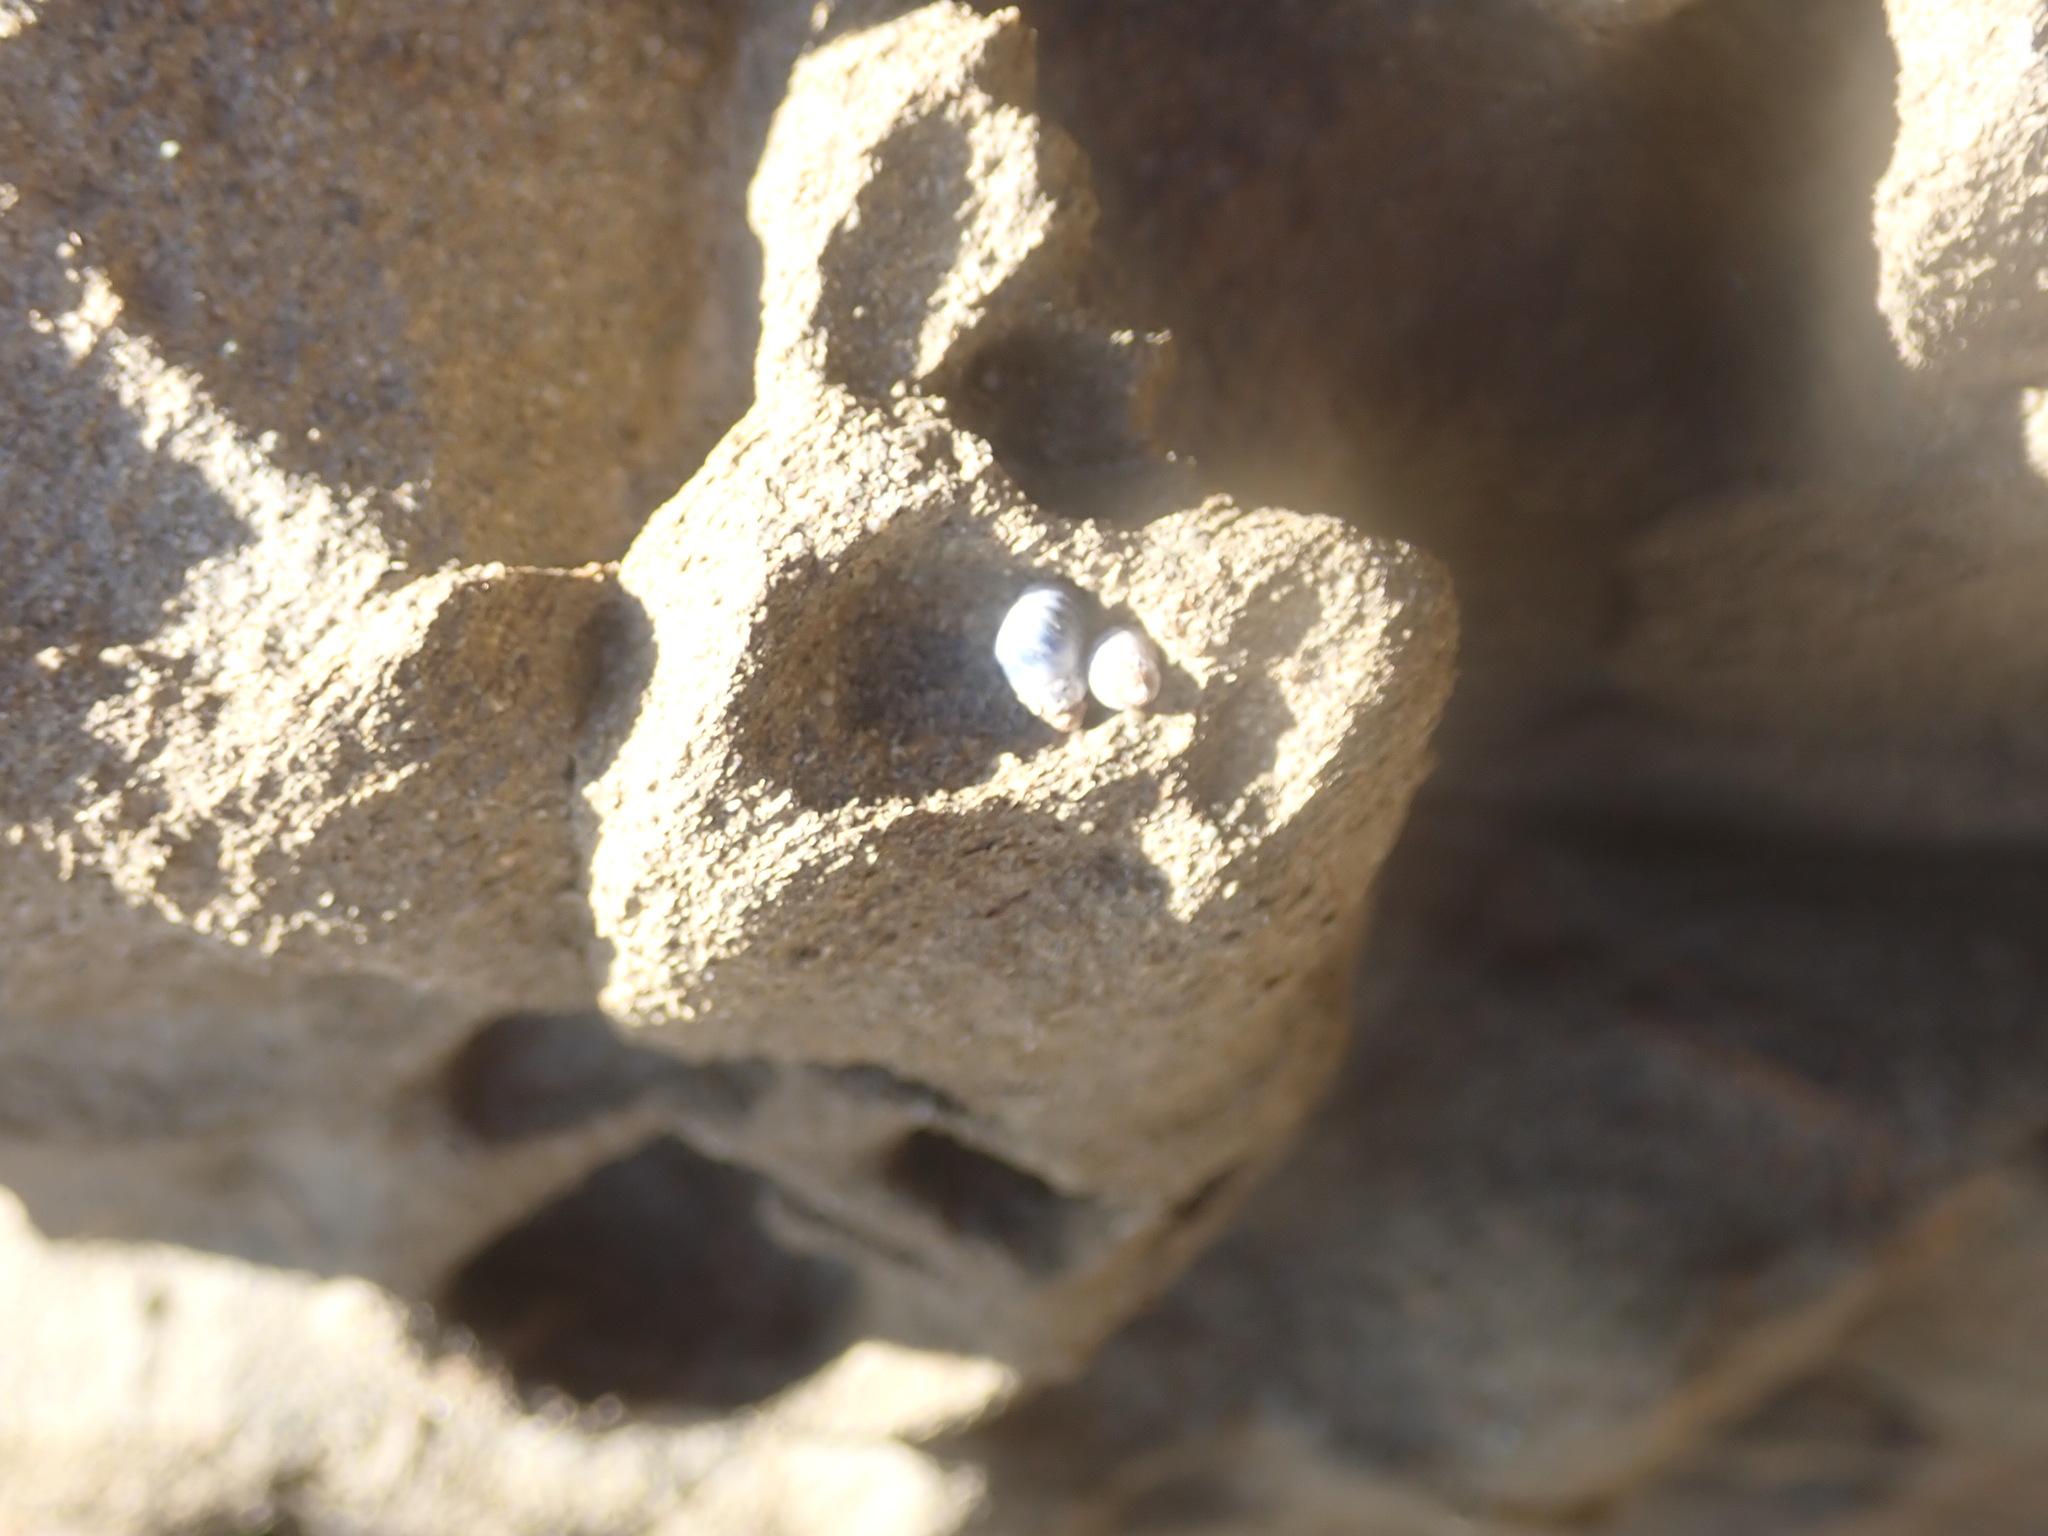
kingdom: Animalia
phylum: Mollusca
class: Gastropoda
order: Littorinimorpha
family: Littorinidae
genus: Austrolittorina
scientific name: Austrolittorina antipodum
